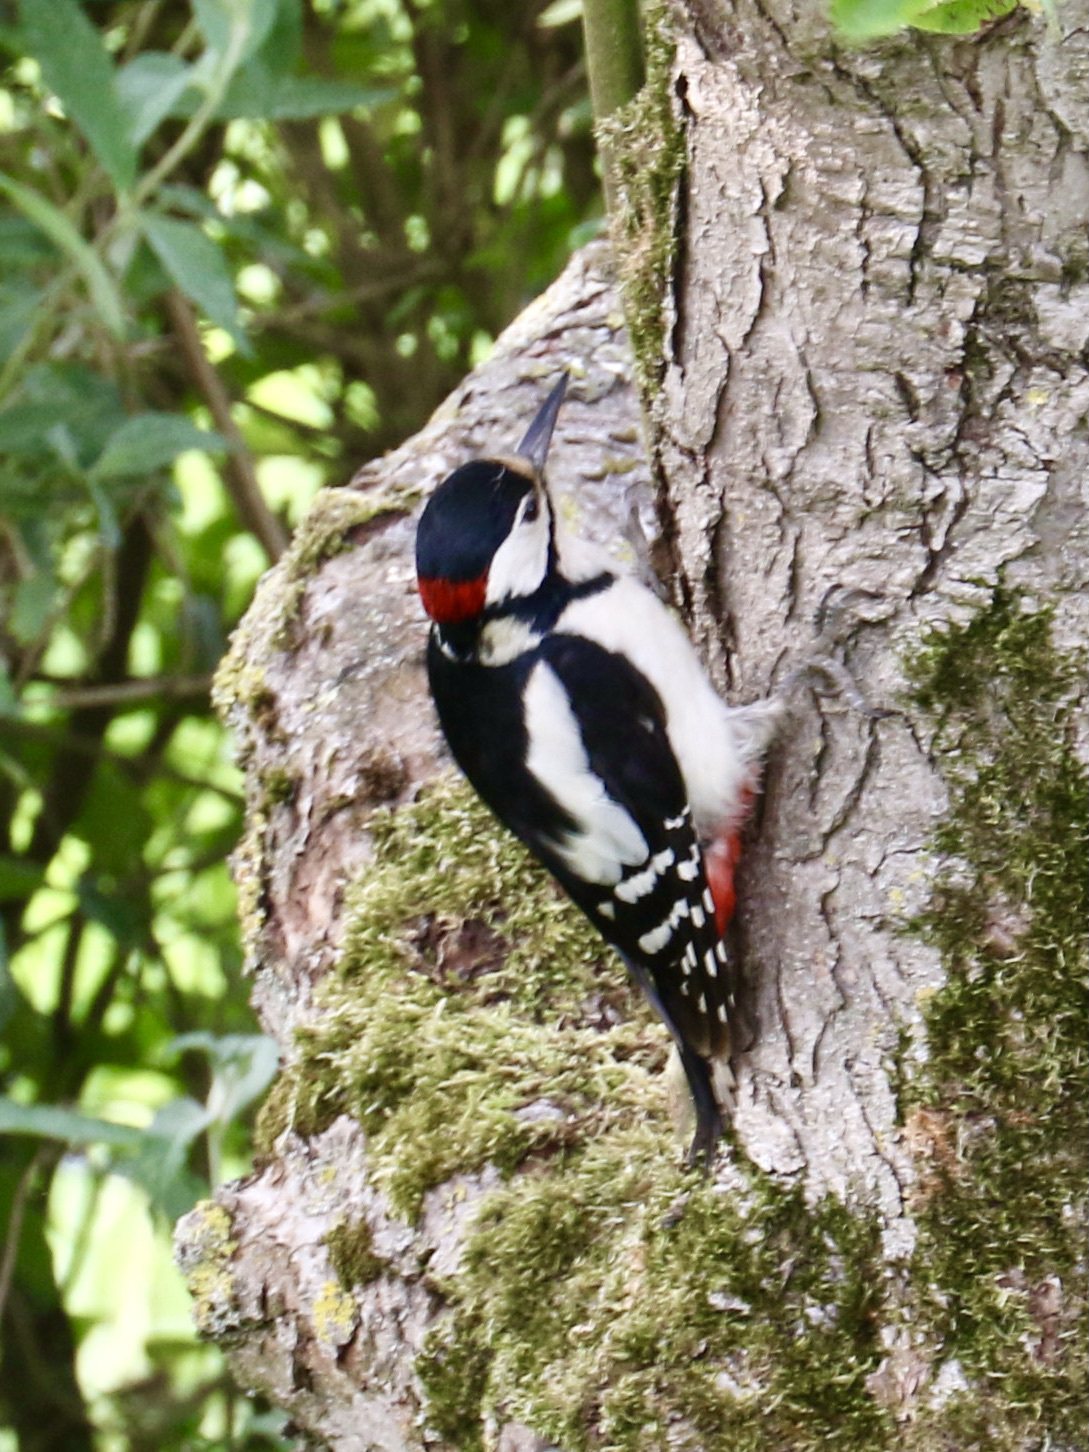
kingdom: Animalia
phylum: Chordata
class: Aves
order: Piciformes
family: Picidae
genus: Dendrocopos
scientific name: Dendrocopos major
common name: Great spotted woodpecker
